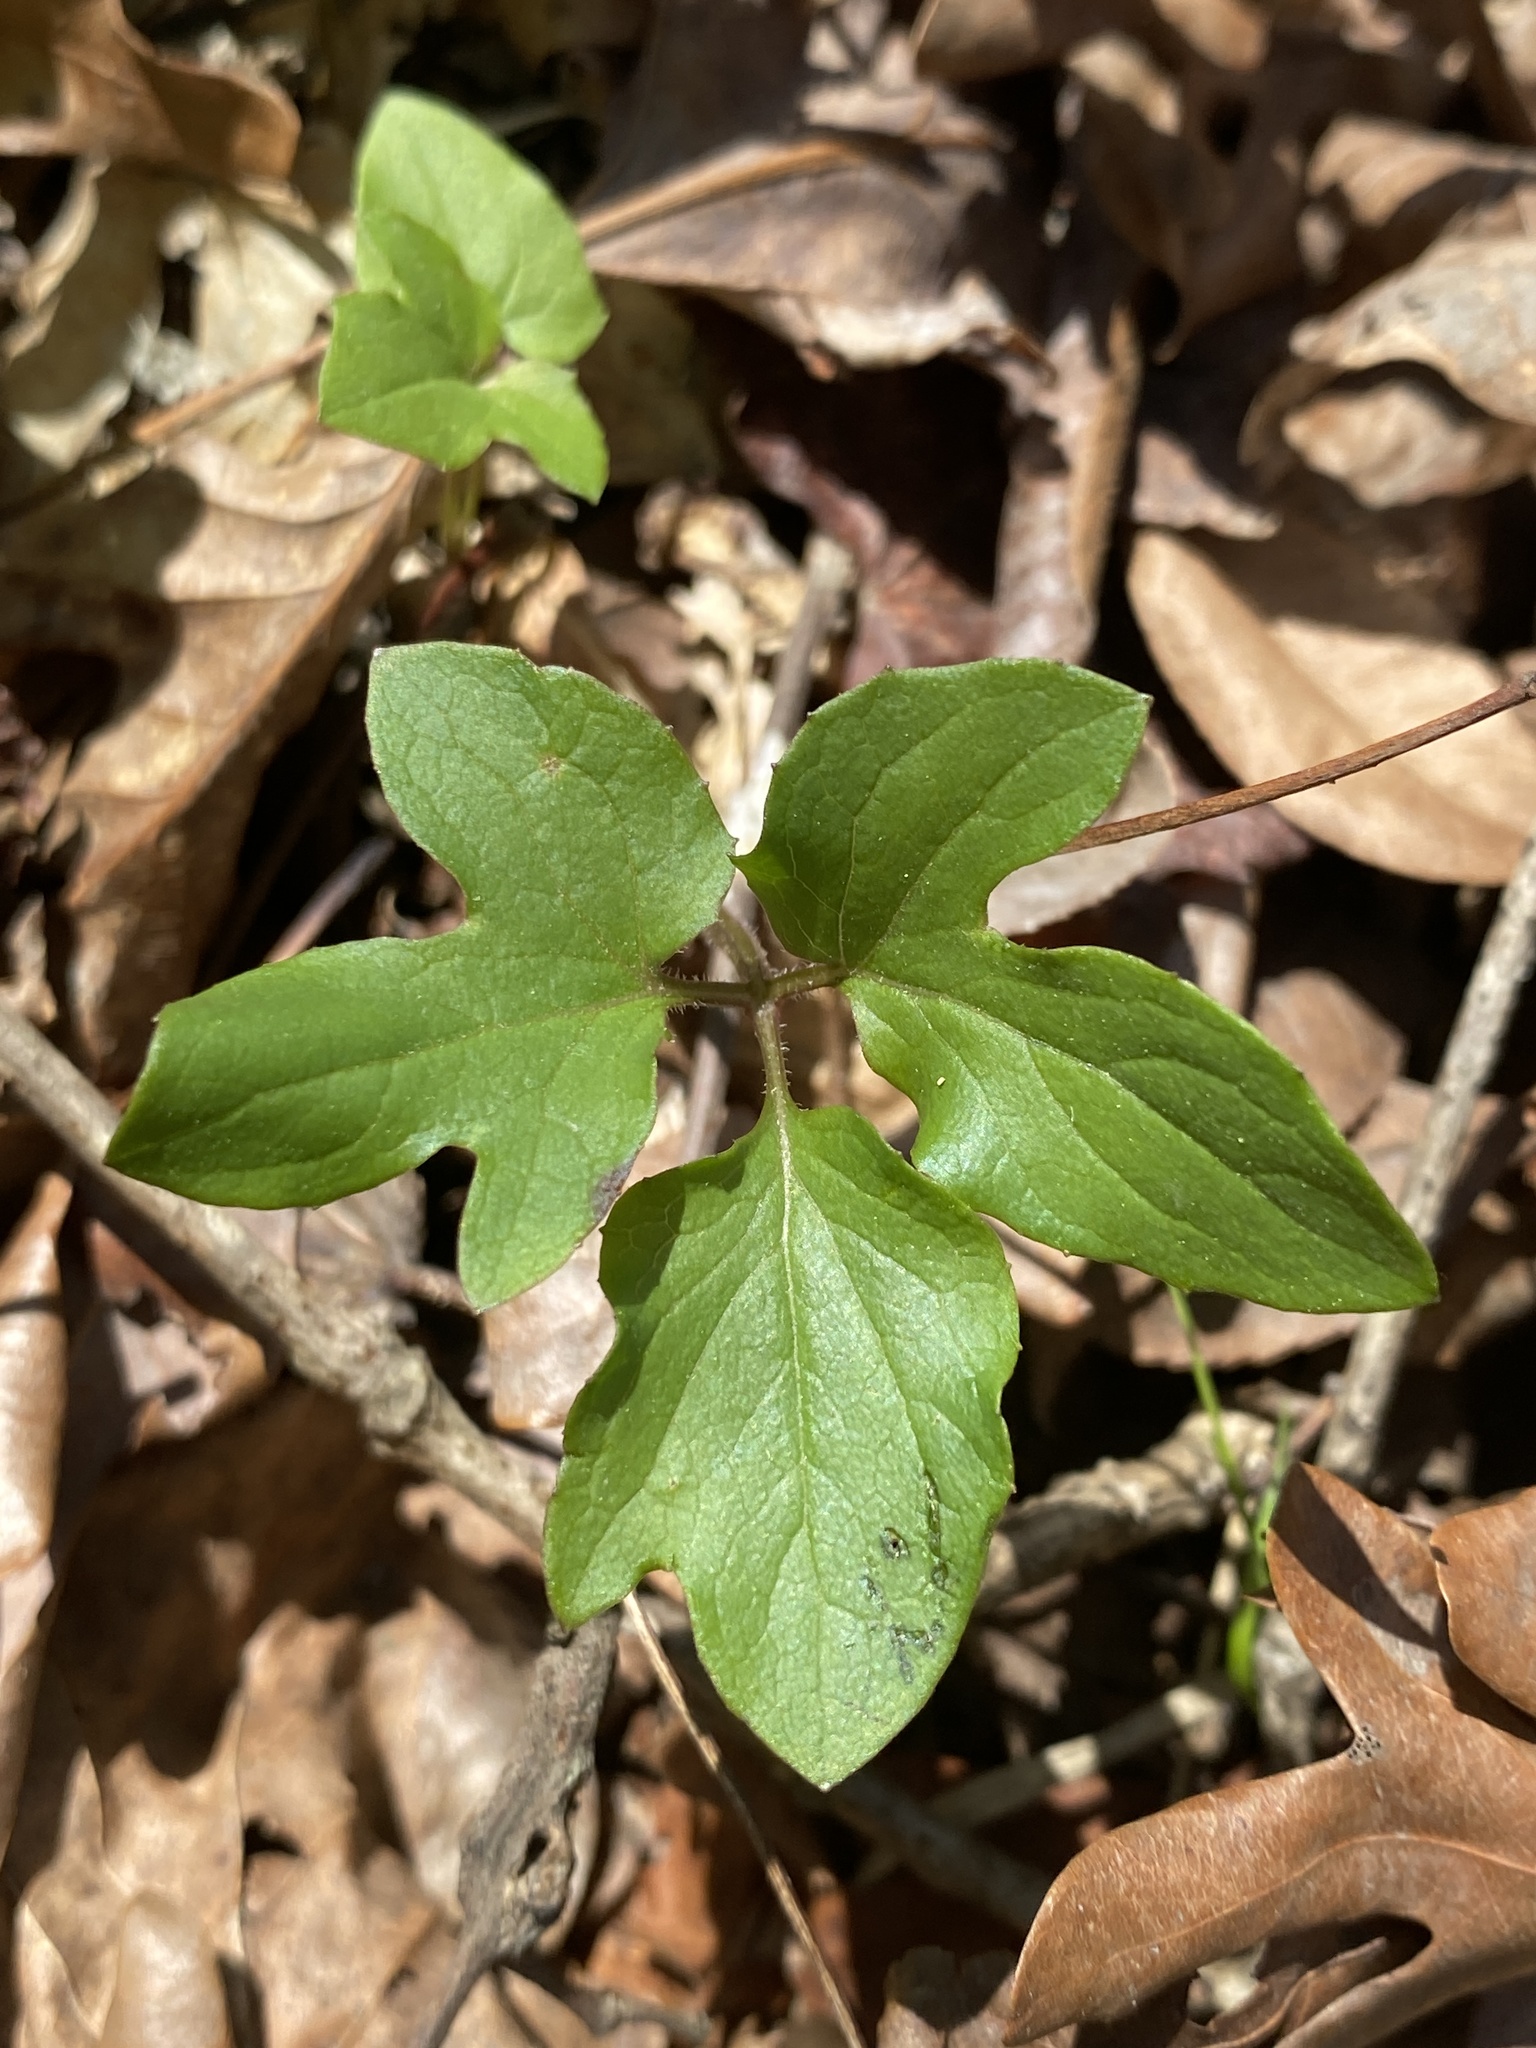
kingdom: Plantae
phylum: Tracheophyta
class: Magnoliopsida
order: Asterales
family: Asteraceae
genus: Nabalus
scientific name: Nabalus altissima
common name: Tall rattlesnakeroot
